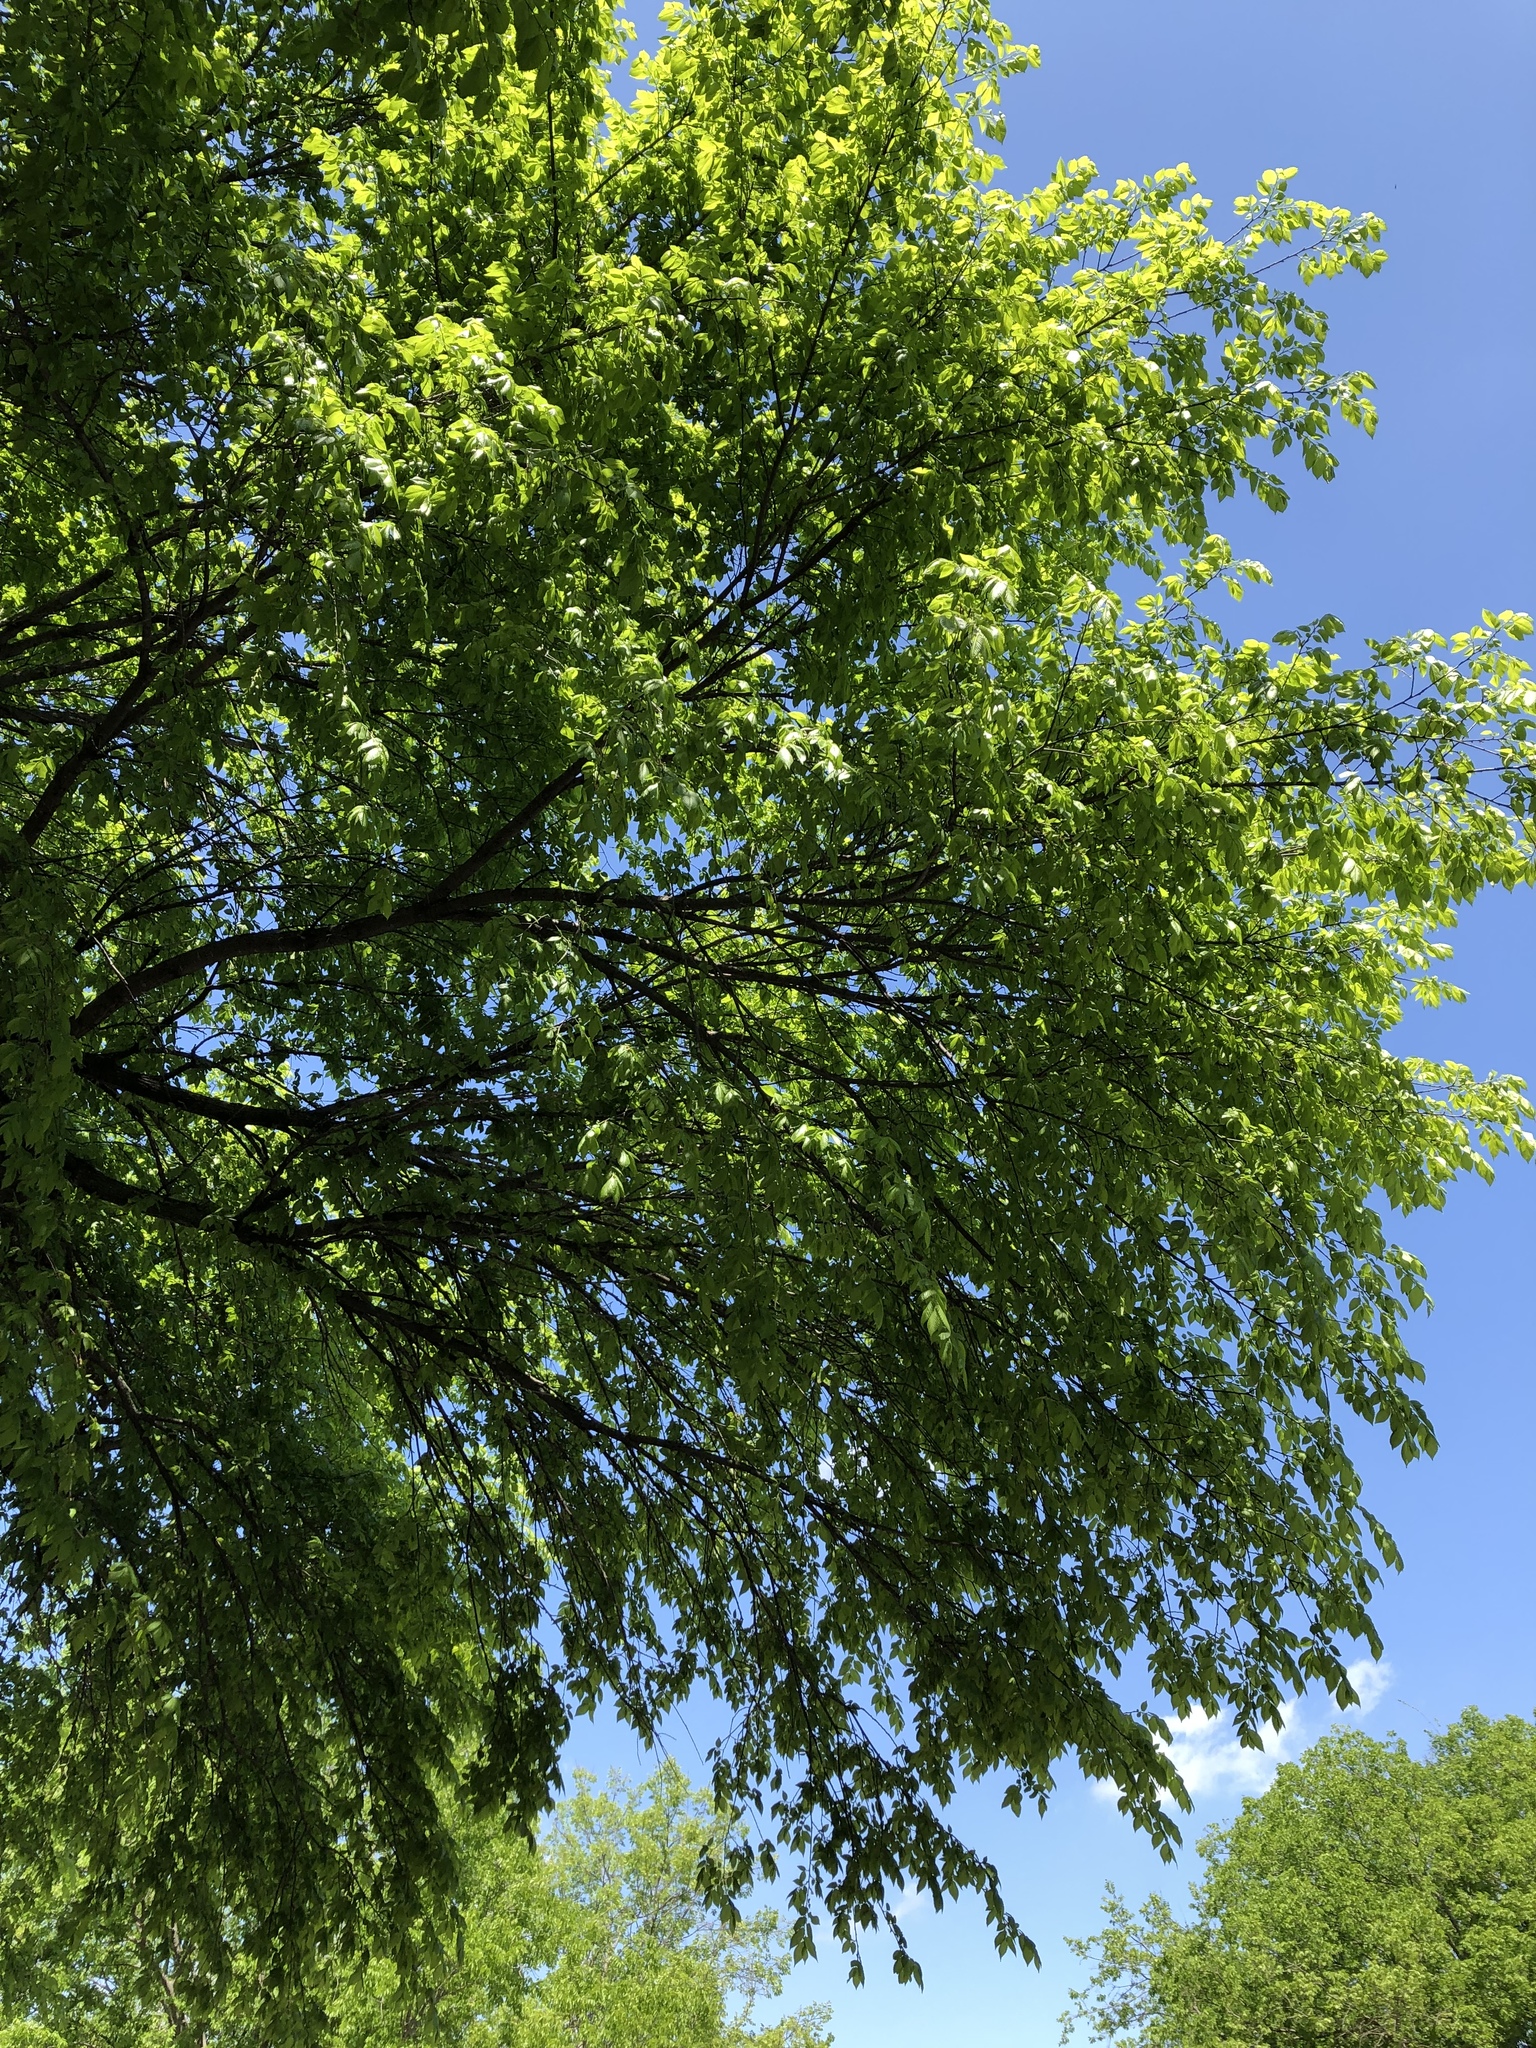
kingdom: Plantae
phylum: Tracheophyta
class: Magnoliopsida
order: Rosales
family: Ulmaceae
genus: Ulmus
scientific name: Ulmus americana
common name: American elm
